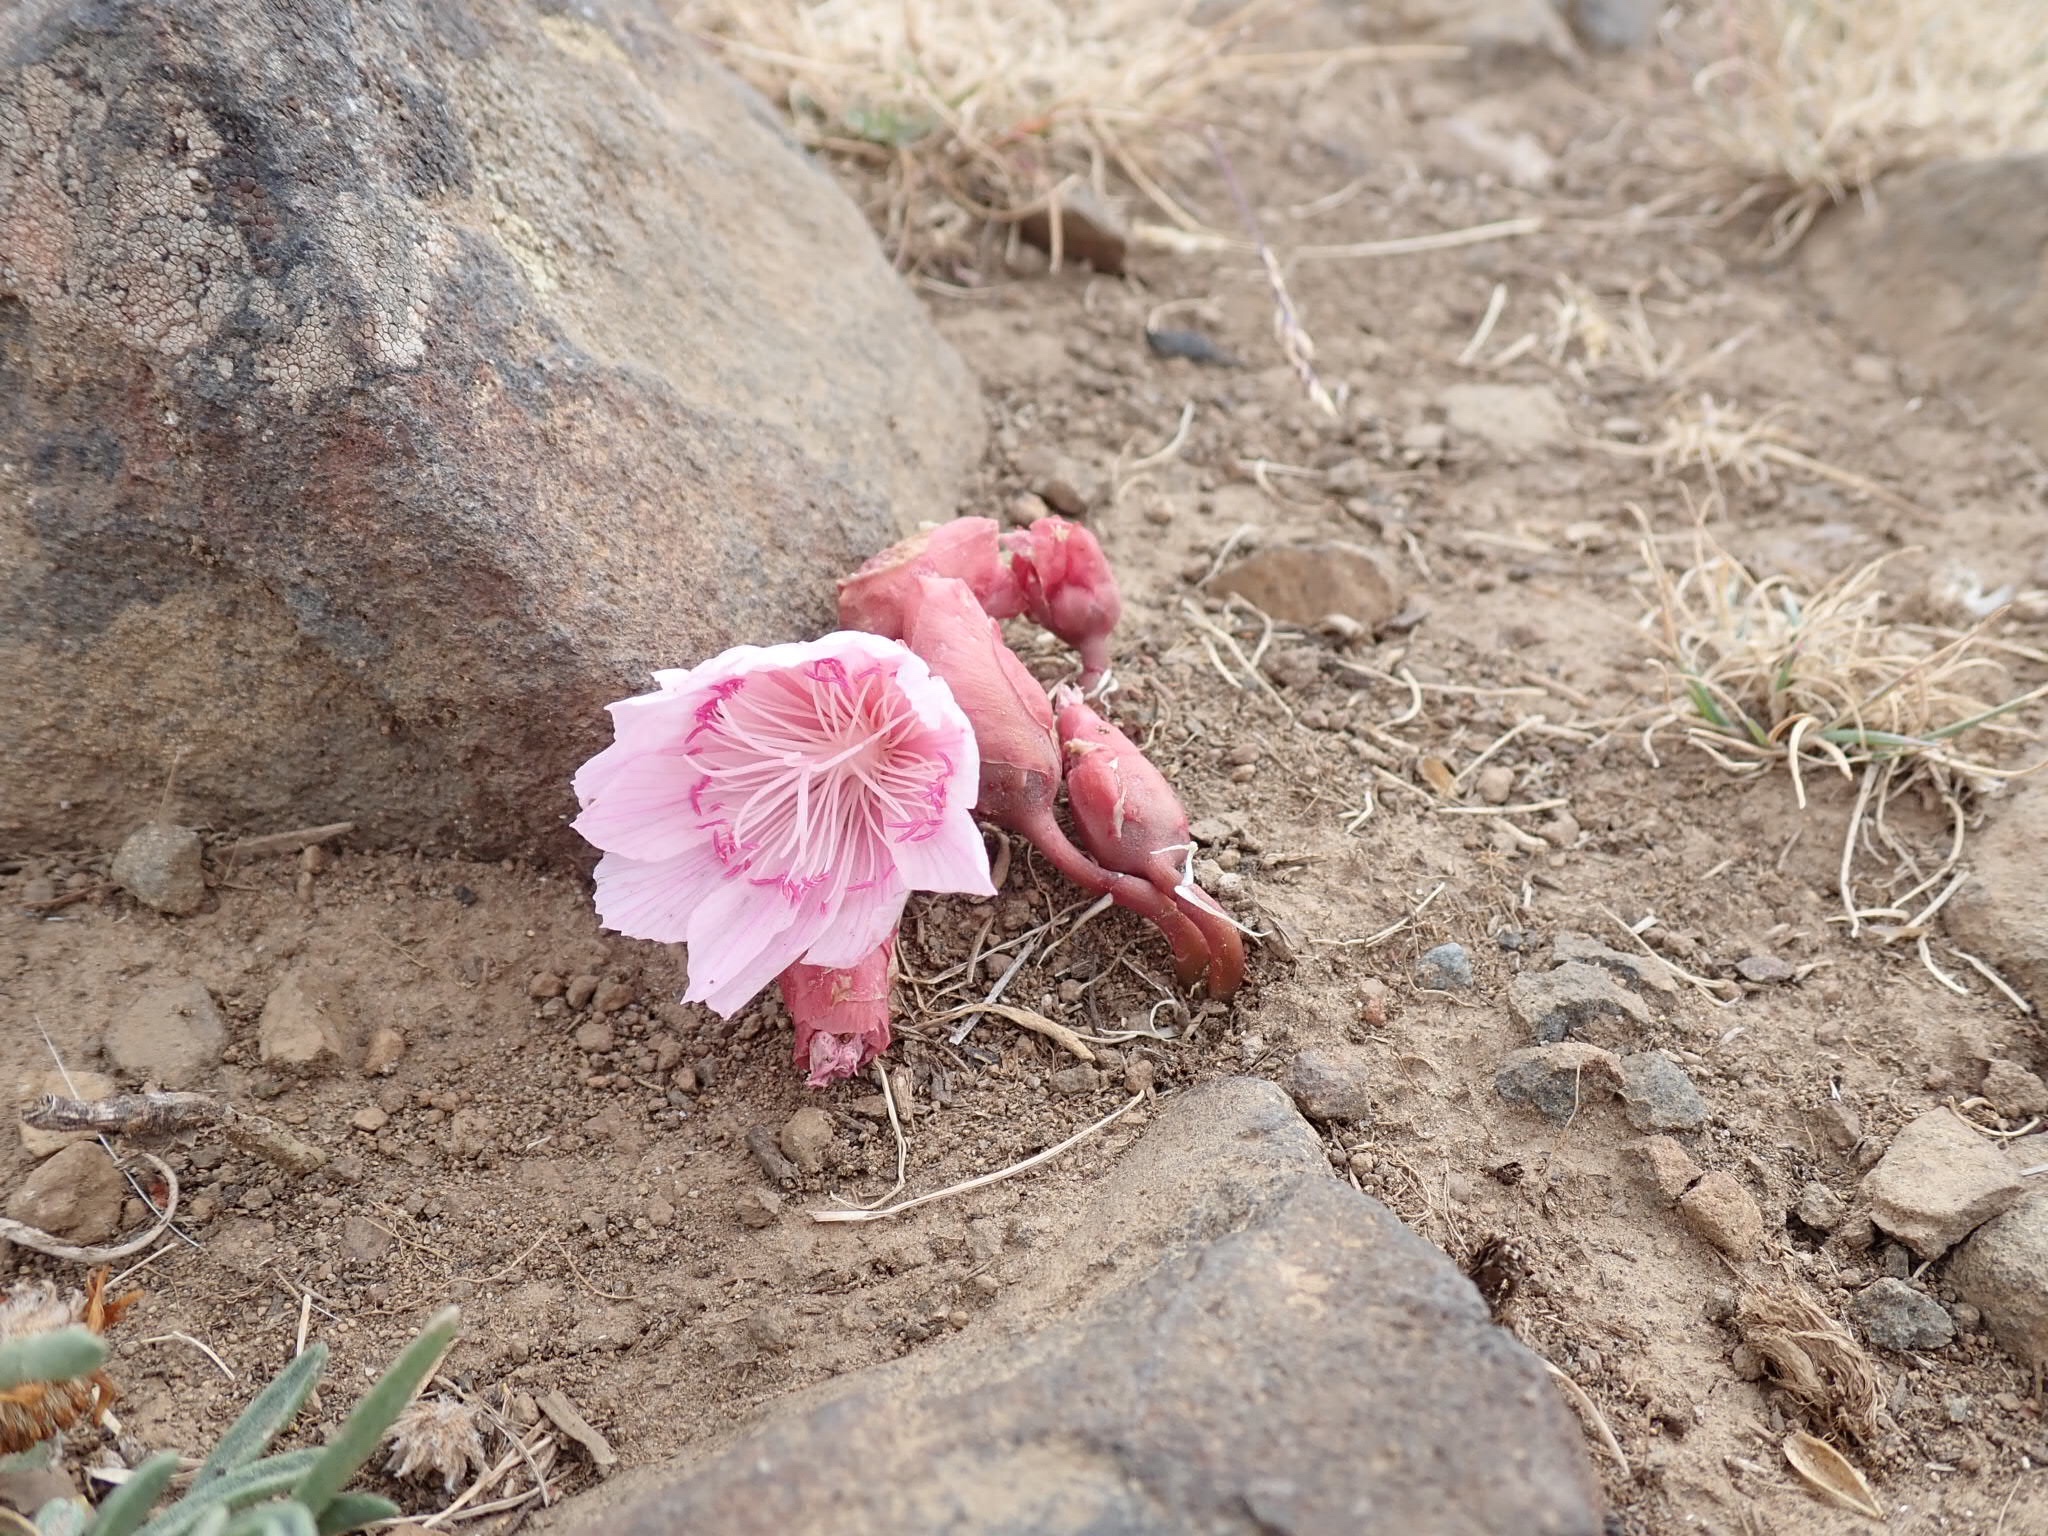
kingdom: Plantae
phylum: Tracheophyta
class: Magnoliopsida
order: Caryophyllales
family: Montiaceae
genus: Lewisia
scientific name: Lewisia rediviva
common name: Bitter-root
